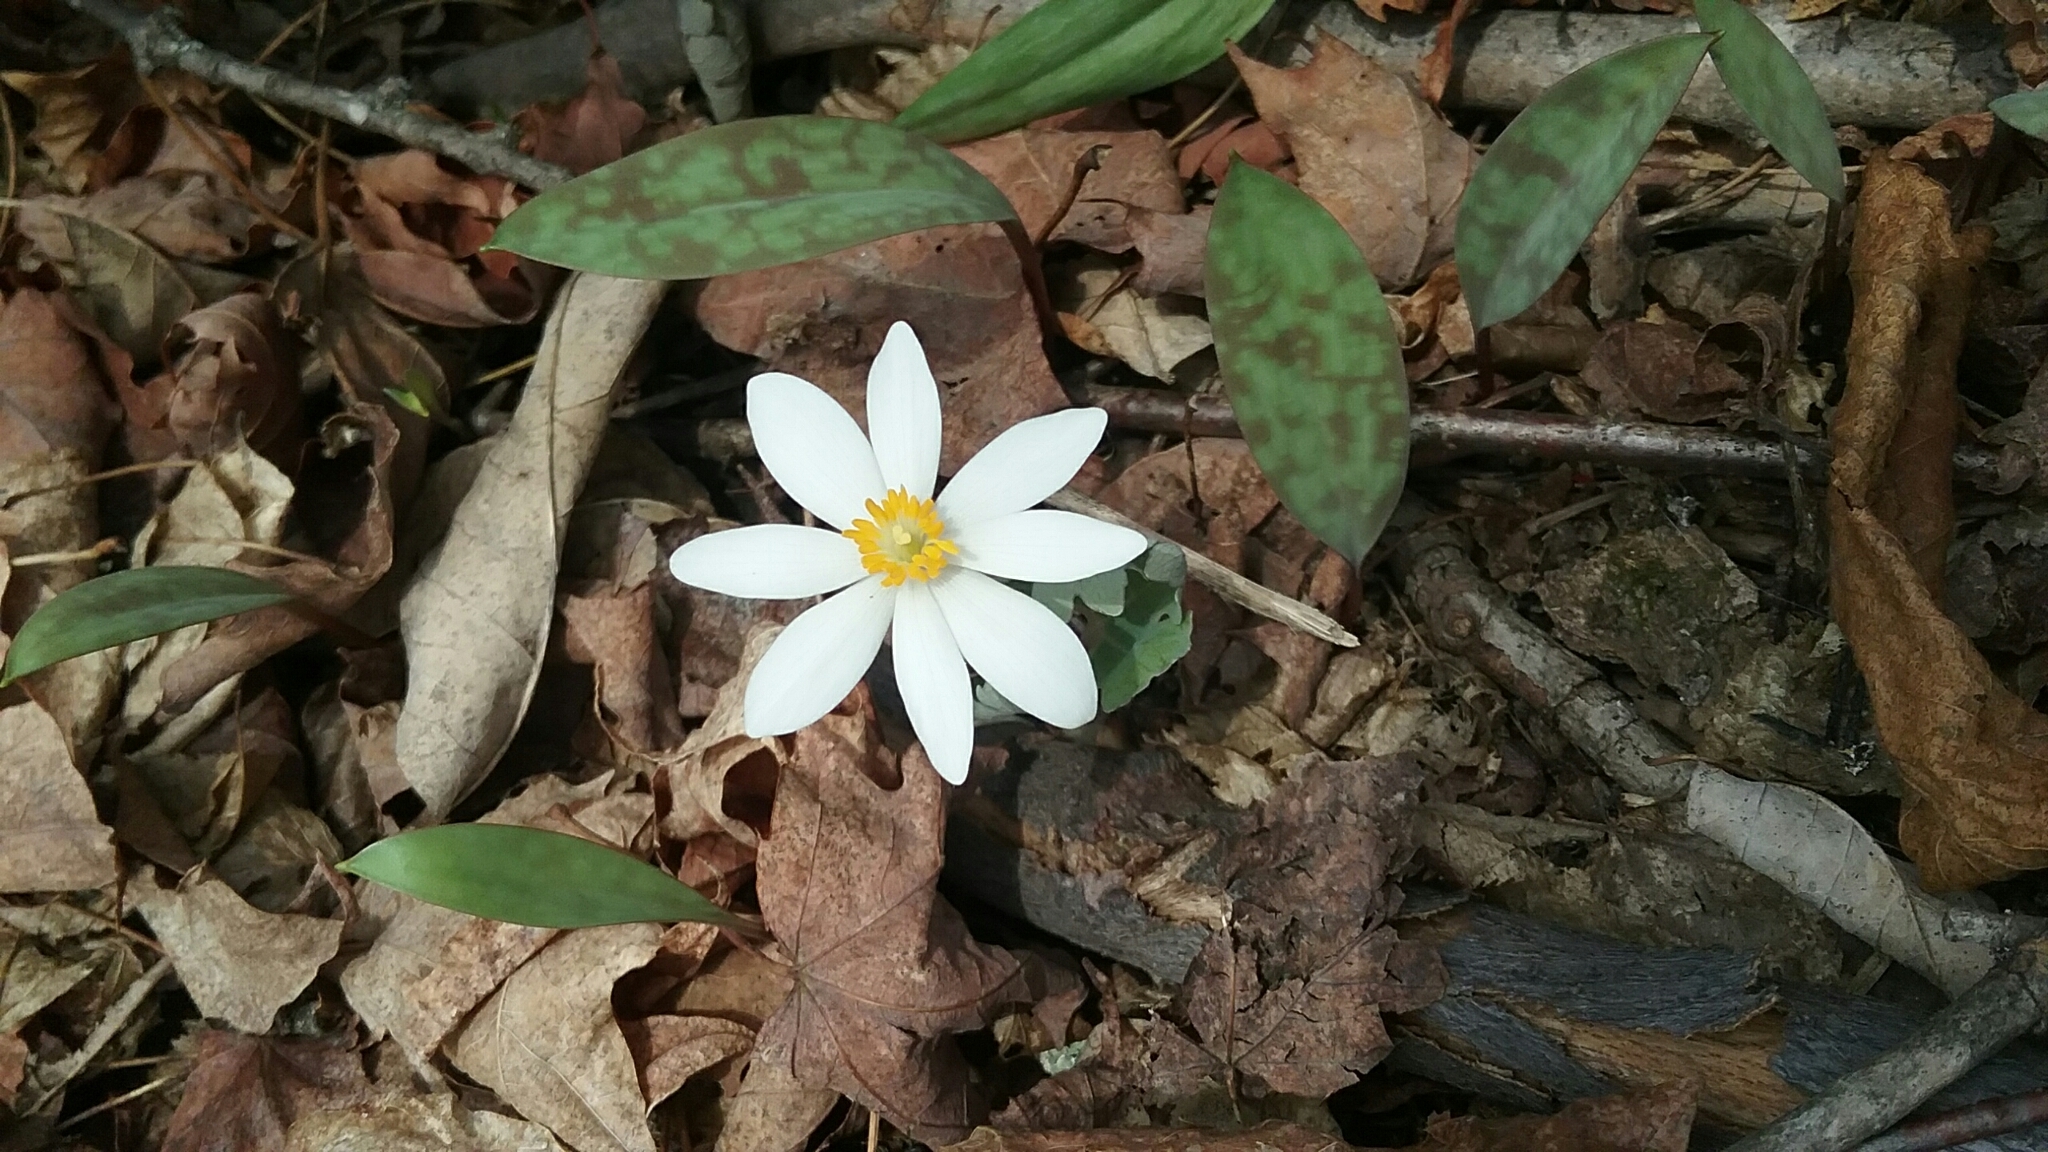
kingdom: Plantae
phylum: Tracheophyta
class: Magnoliopsida
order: Ranunculales
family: Papaveraceae
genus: Sanguinaria
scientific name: Sanguinaria canadensis
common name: Bloodroot
